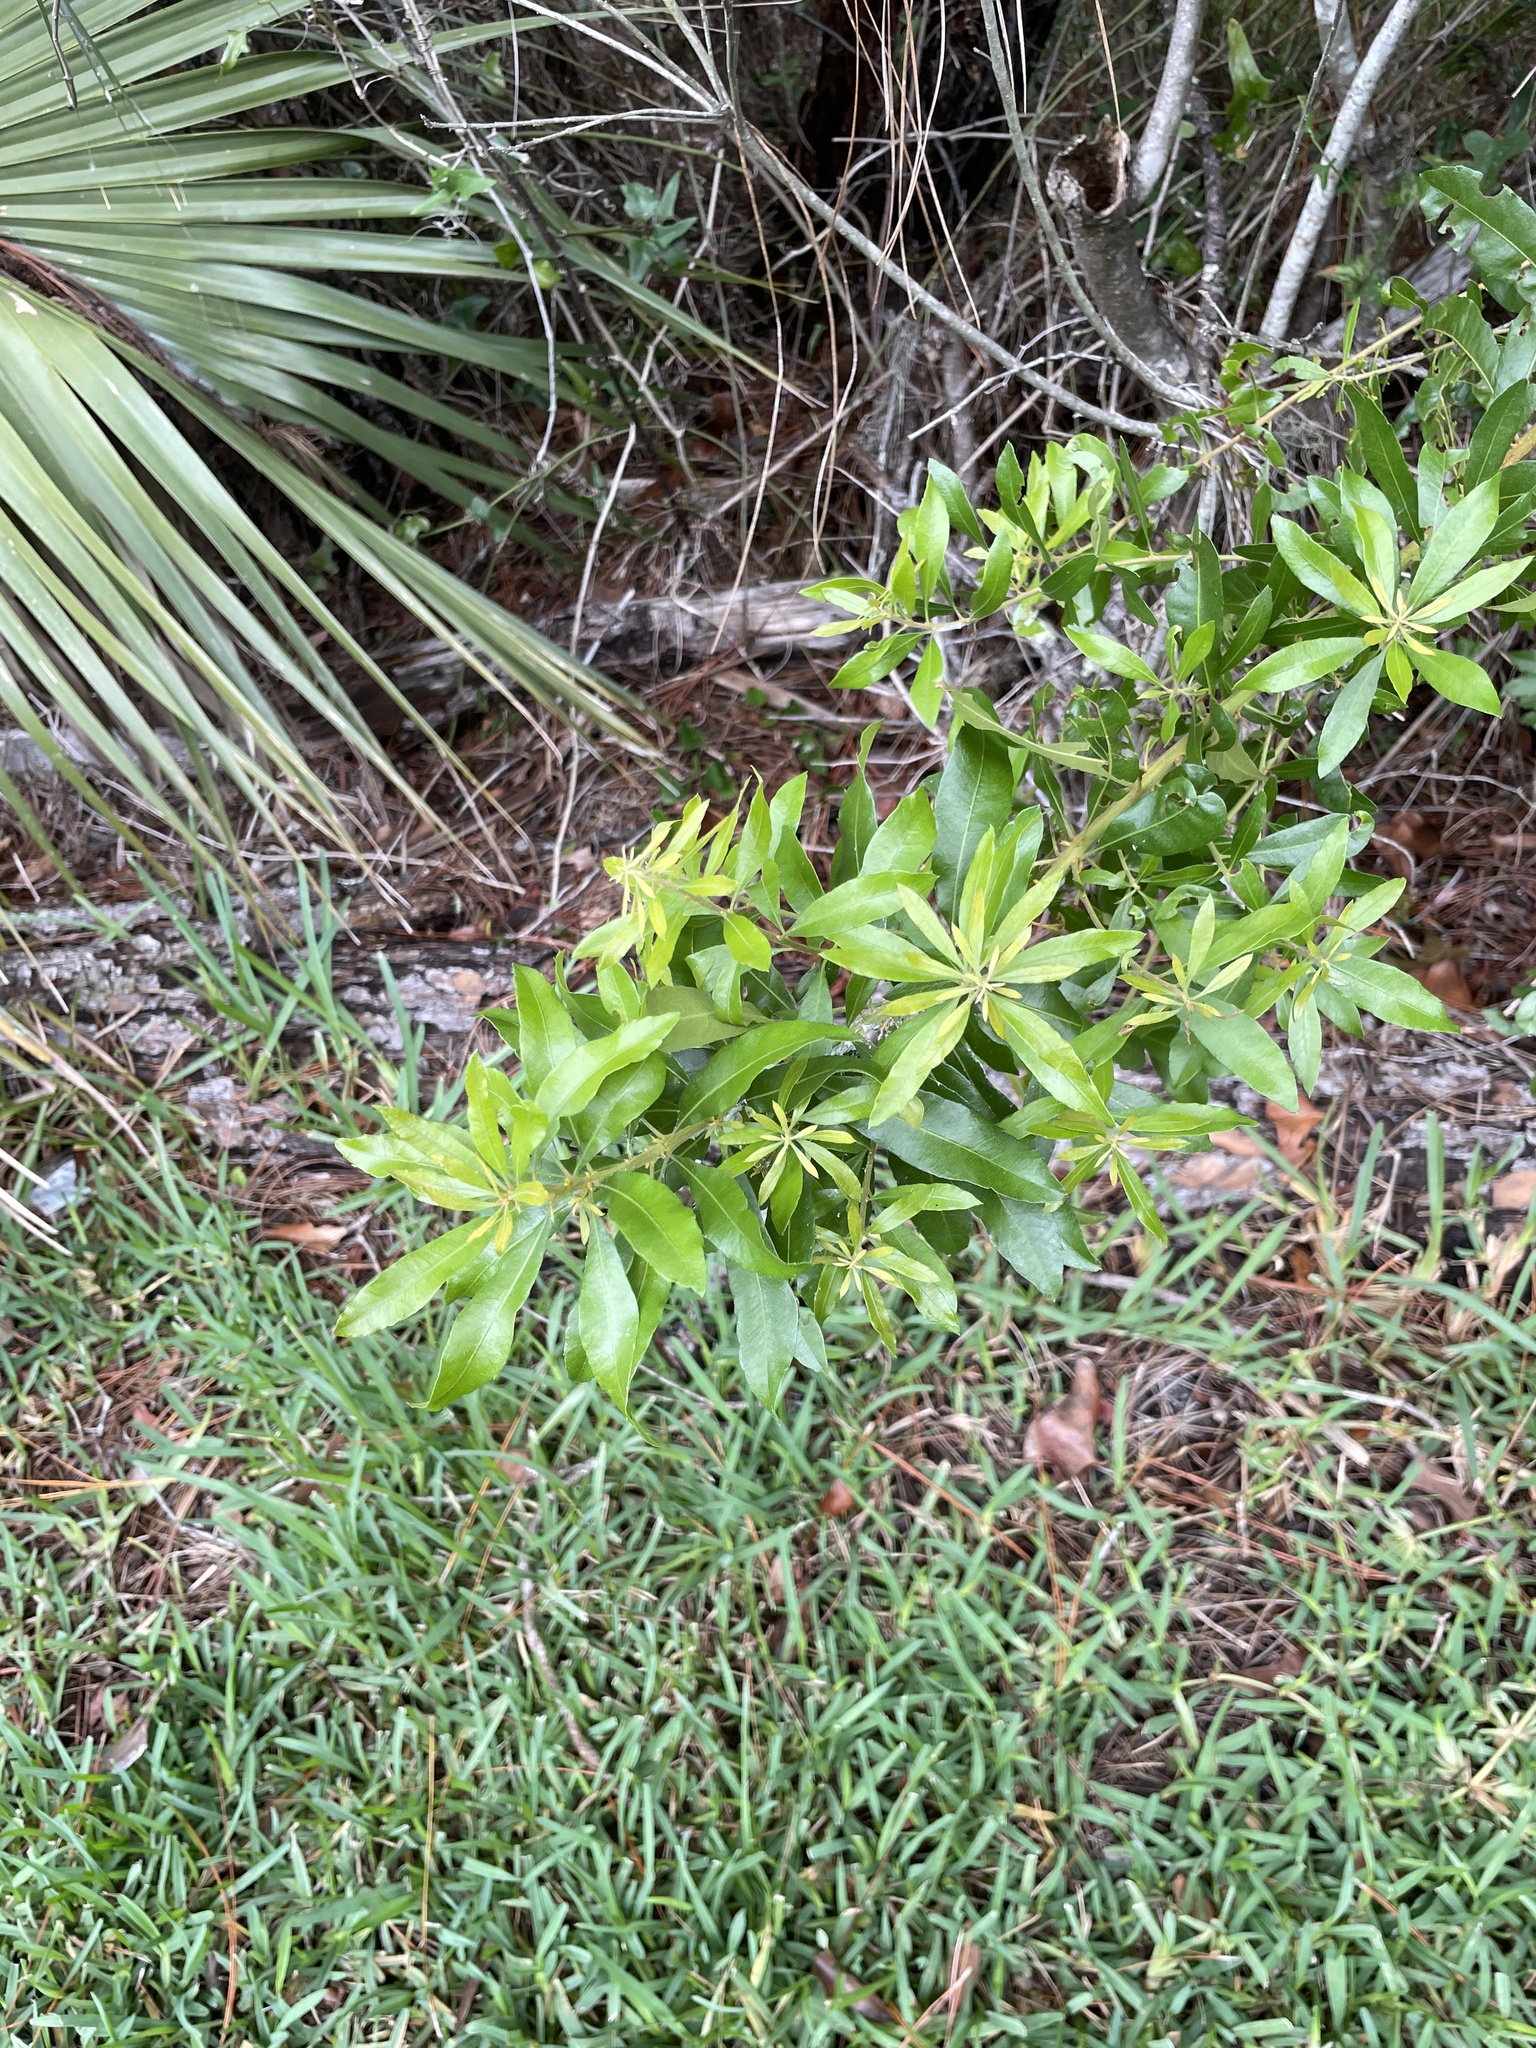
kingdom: Plantae
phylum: Tracheophyta
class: Magnoliopsida
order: Fagales
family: Myricaceae
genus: Morella
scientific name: Morella cerifera
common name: Wax myrtle
